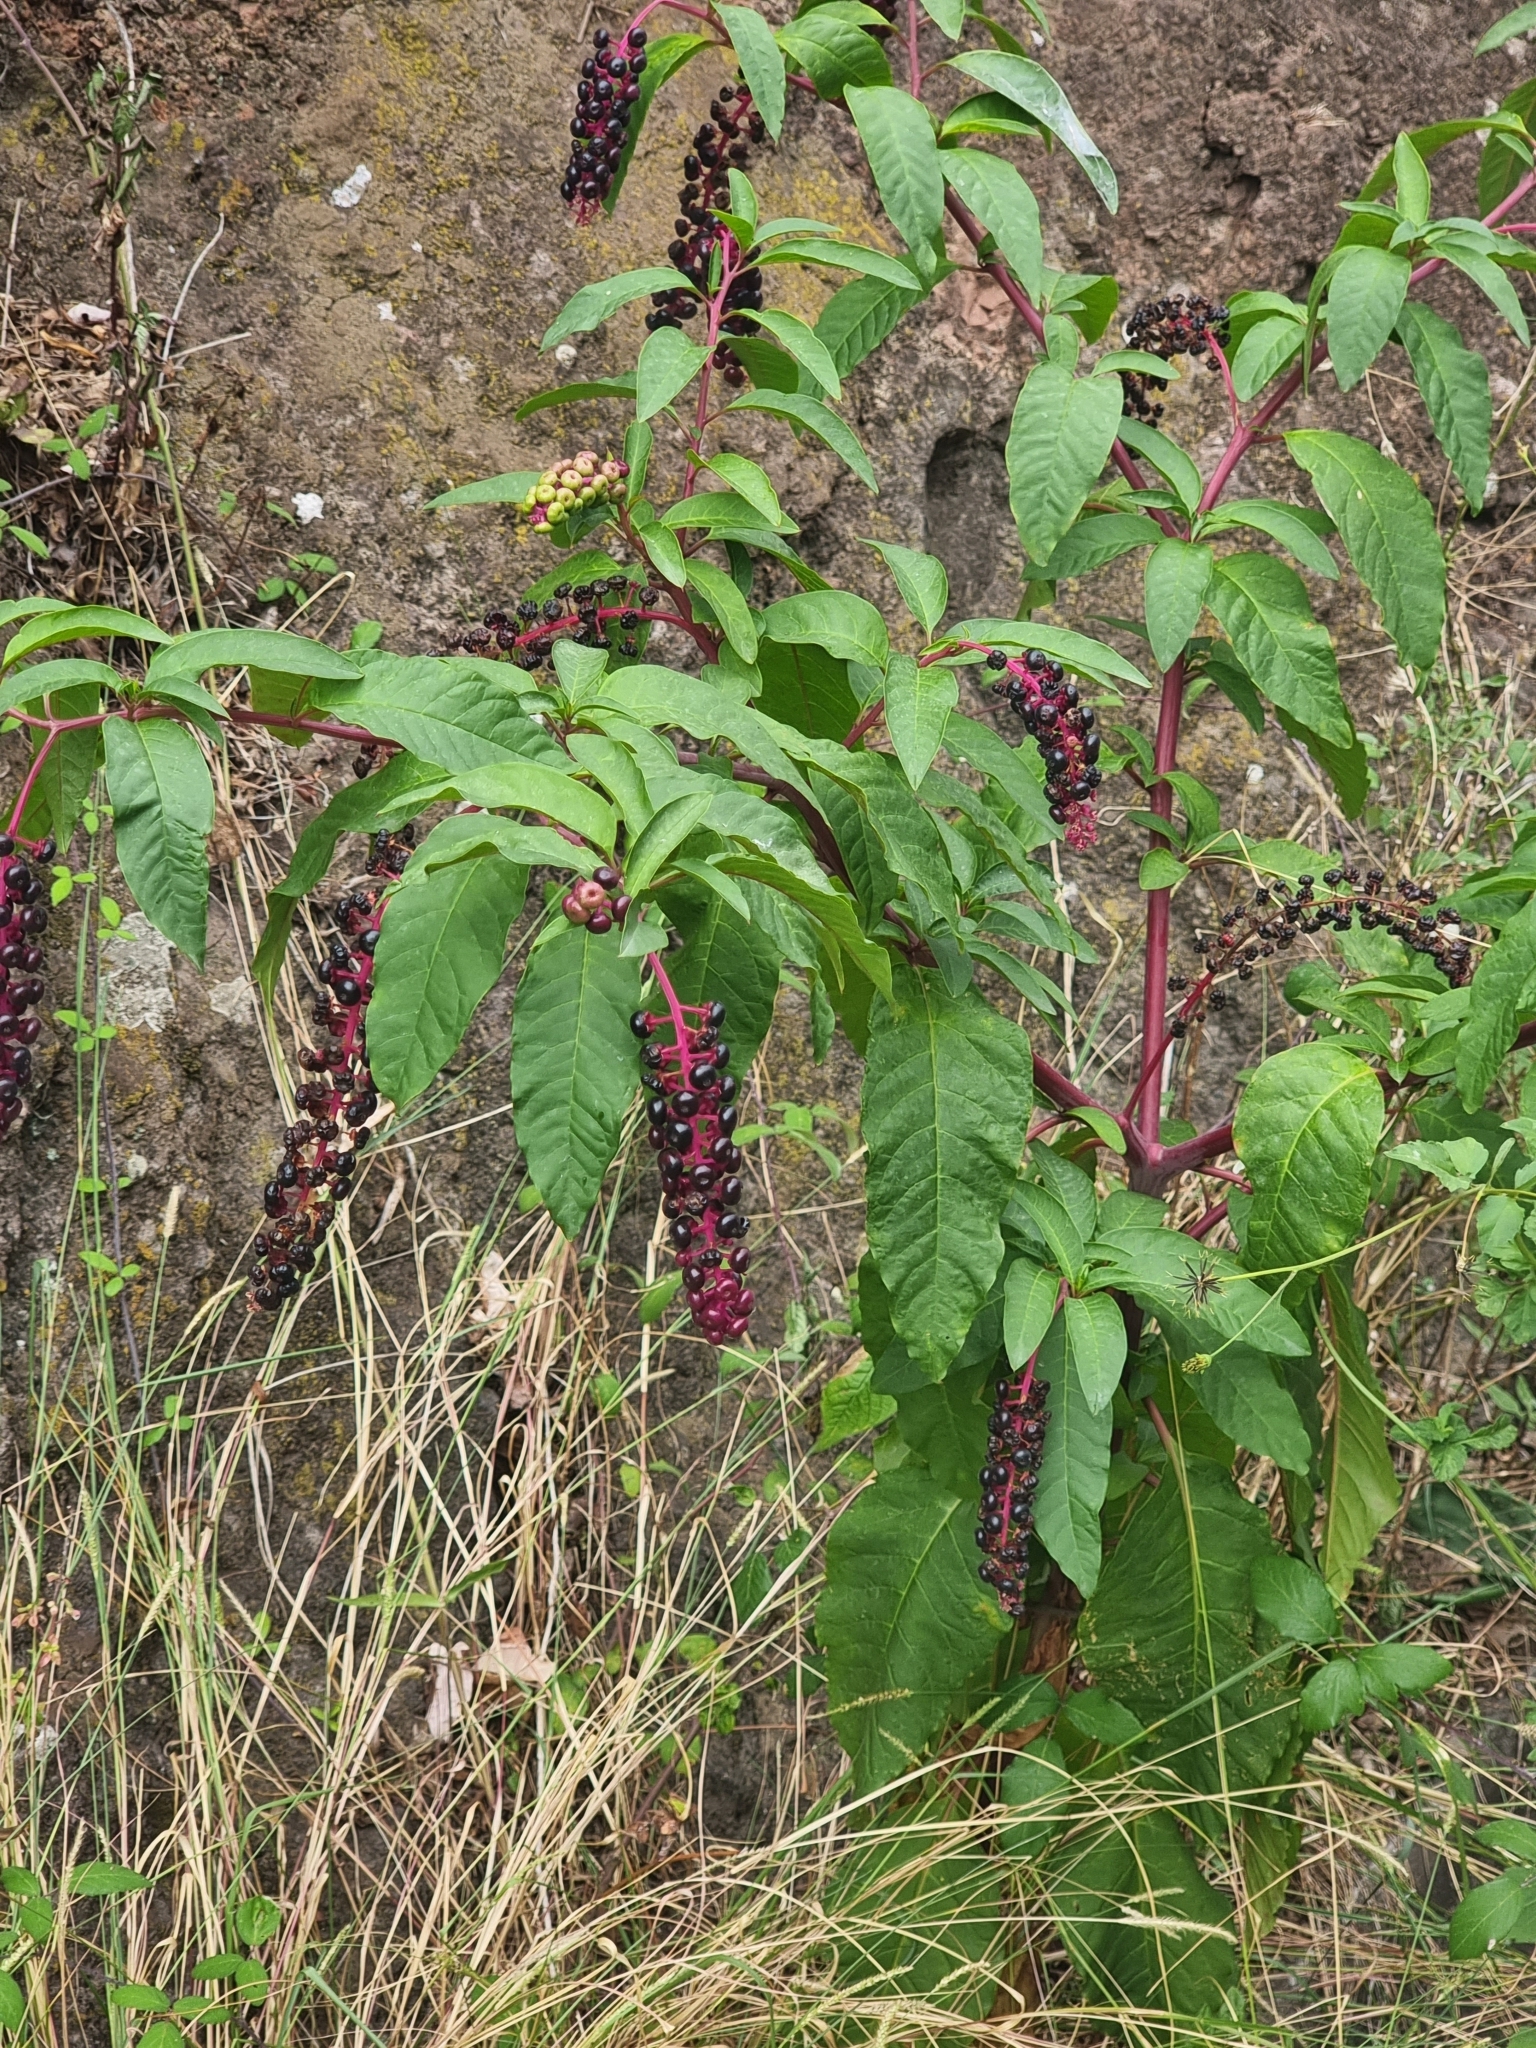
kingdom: Plantae
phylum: Tracheophyta
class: Magnoliopsida
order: Caryophyllales
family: Phytolaccaceae
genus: Phytolacca
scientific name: Phytolacca americana
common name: American pokeweed
